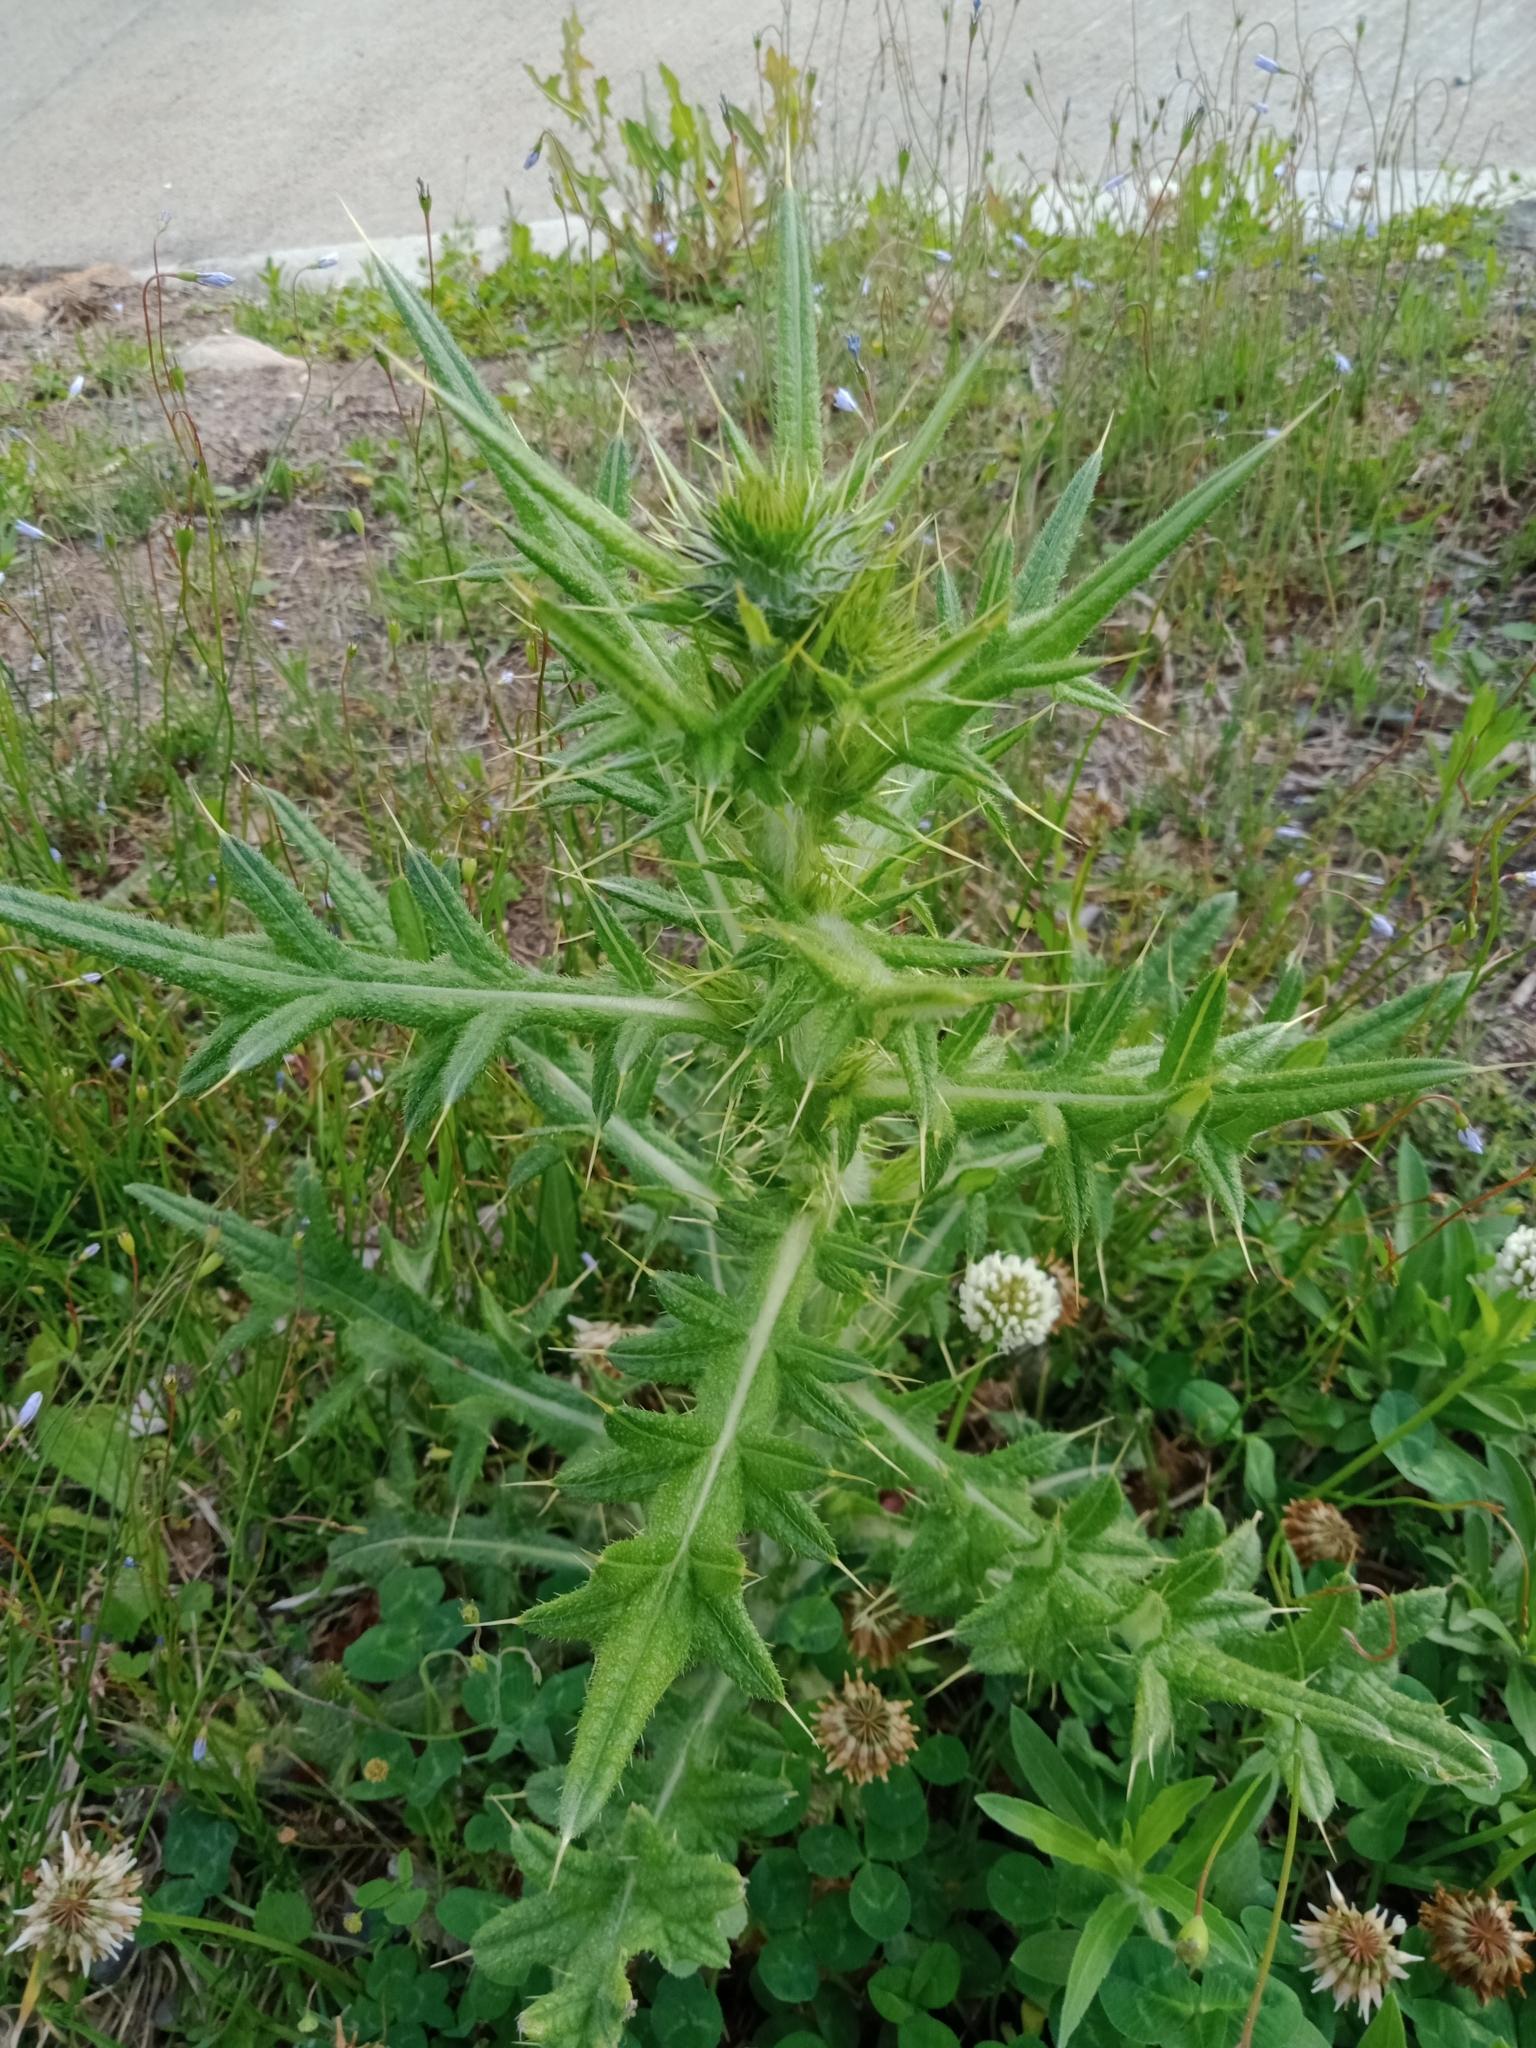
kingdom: Plantae
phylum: Tracheophyta
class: Magnoliopsida
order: Asterales
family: Asteraceae
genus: Cirsium
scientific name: Cirsium vulgare
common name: Bull thistle
